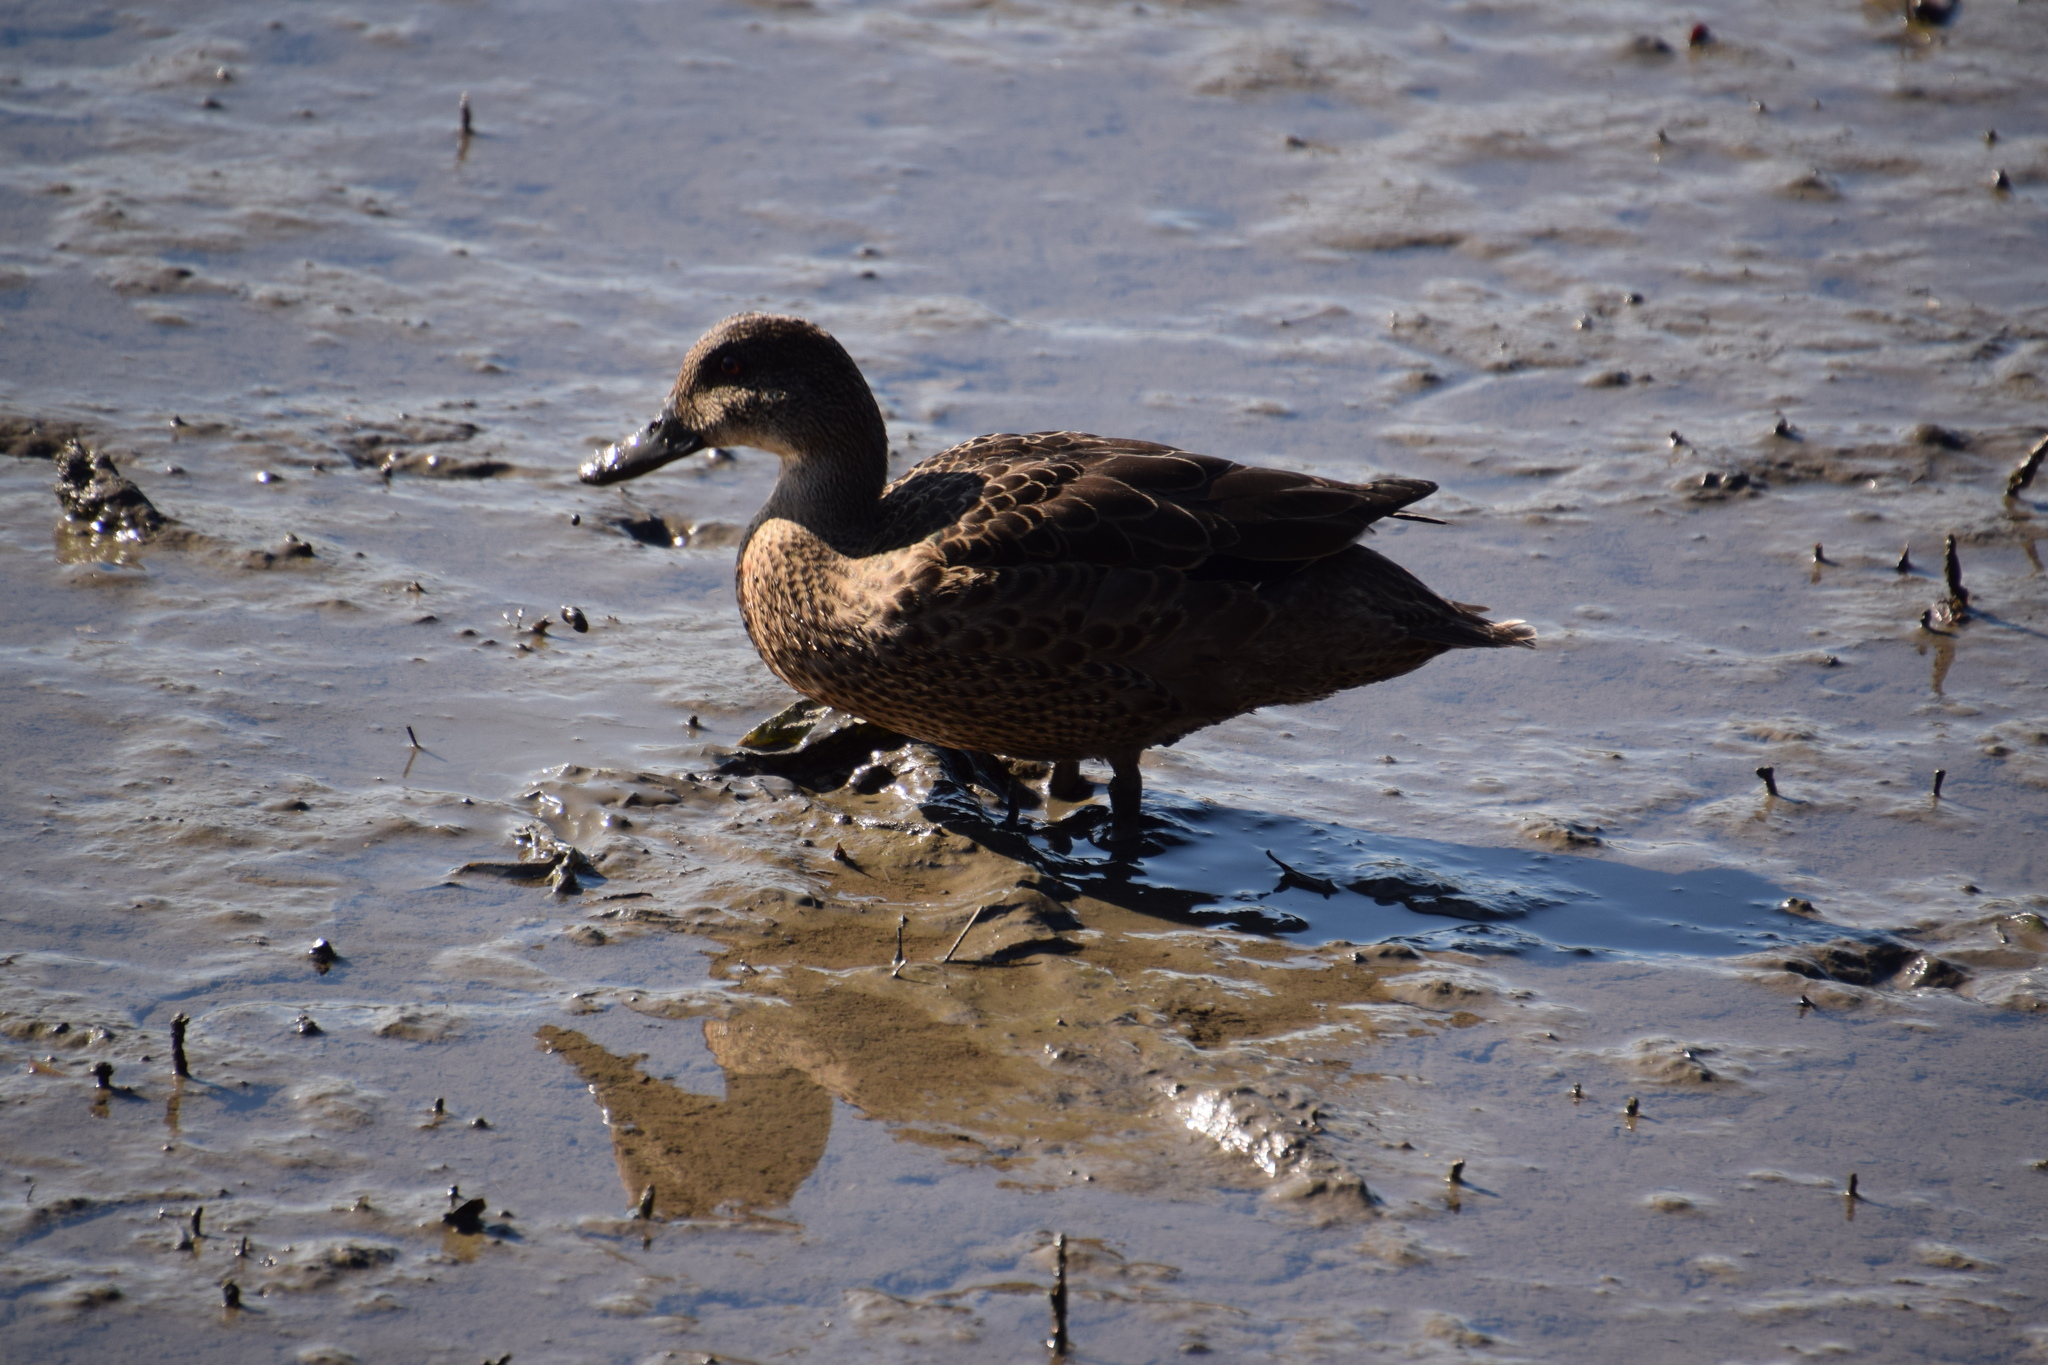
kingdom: Animalia
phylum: Chordata
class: Aves
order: Anseriformes
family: Anatidae
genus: Anas
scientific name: Anas castanea
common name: Chestnut teal
